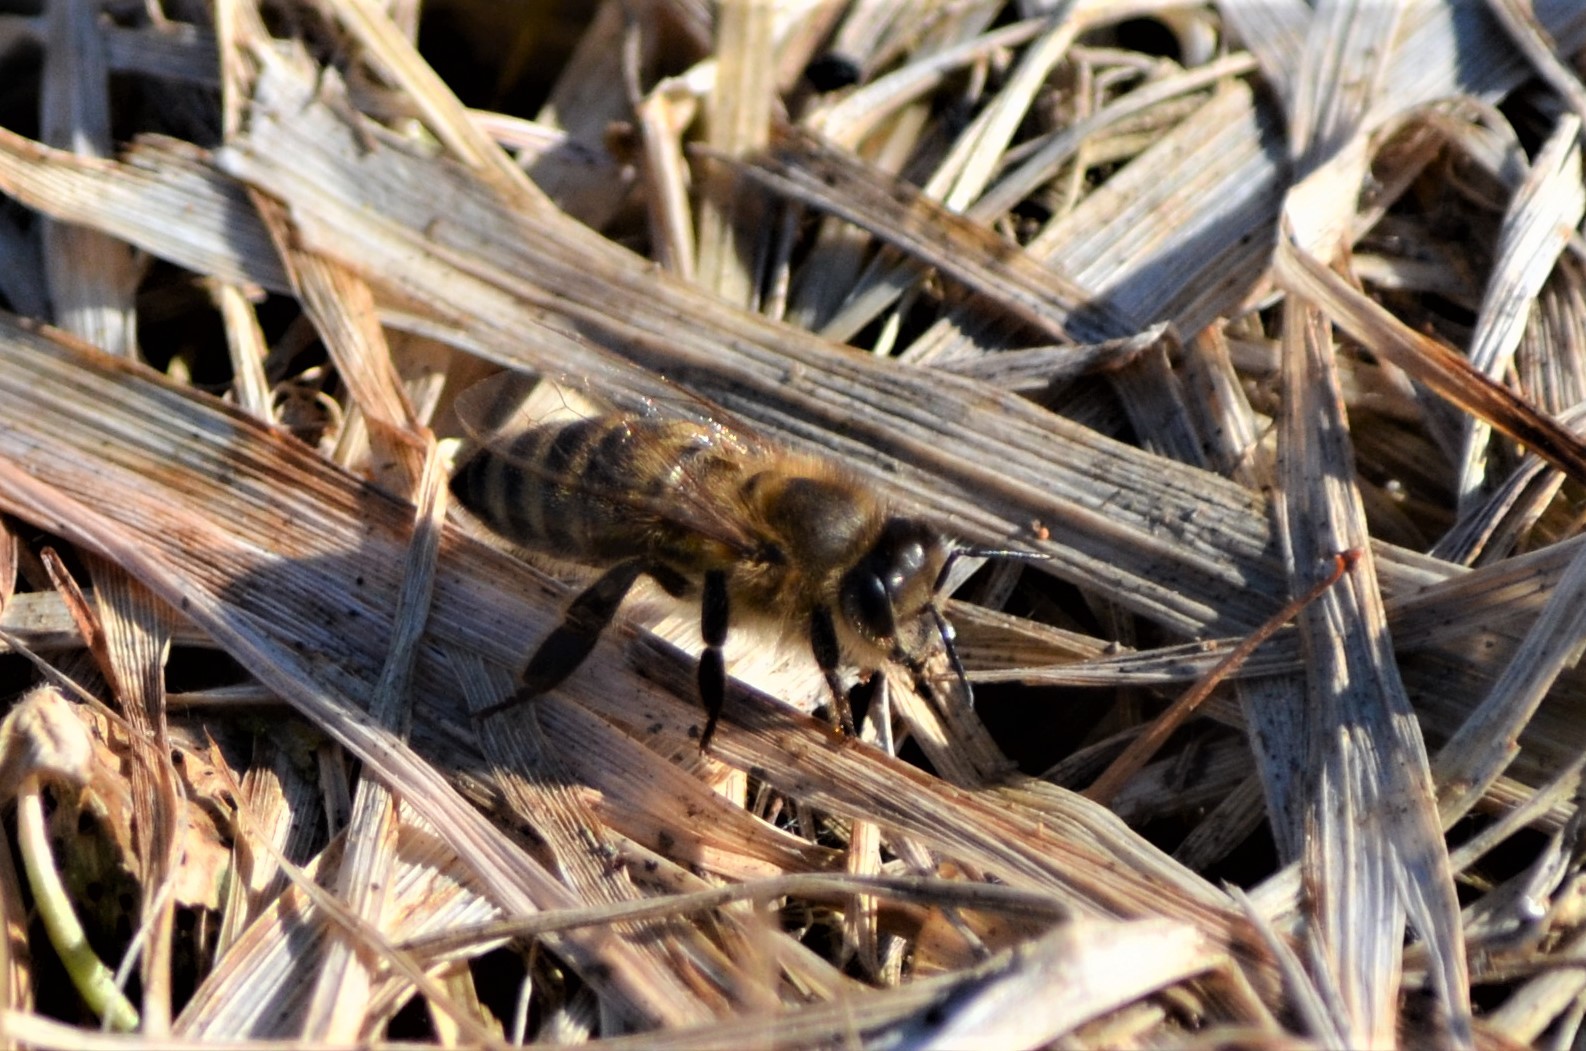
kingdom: Animalia
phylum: Arthropoda
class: Insecta
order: Hymenoptera
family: Apidae
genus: Apis
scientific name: Apis mellifera
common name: Honey bee
